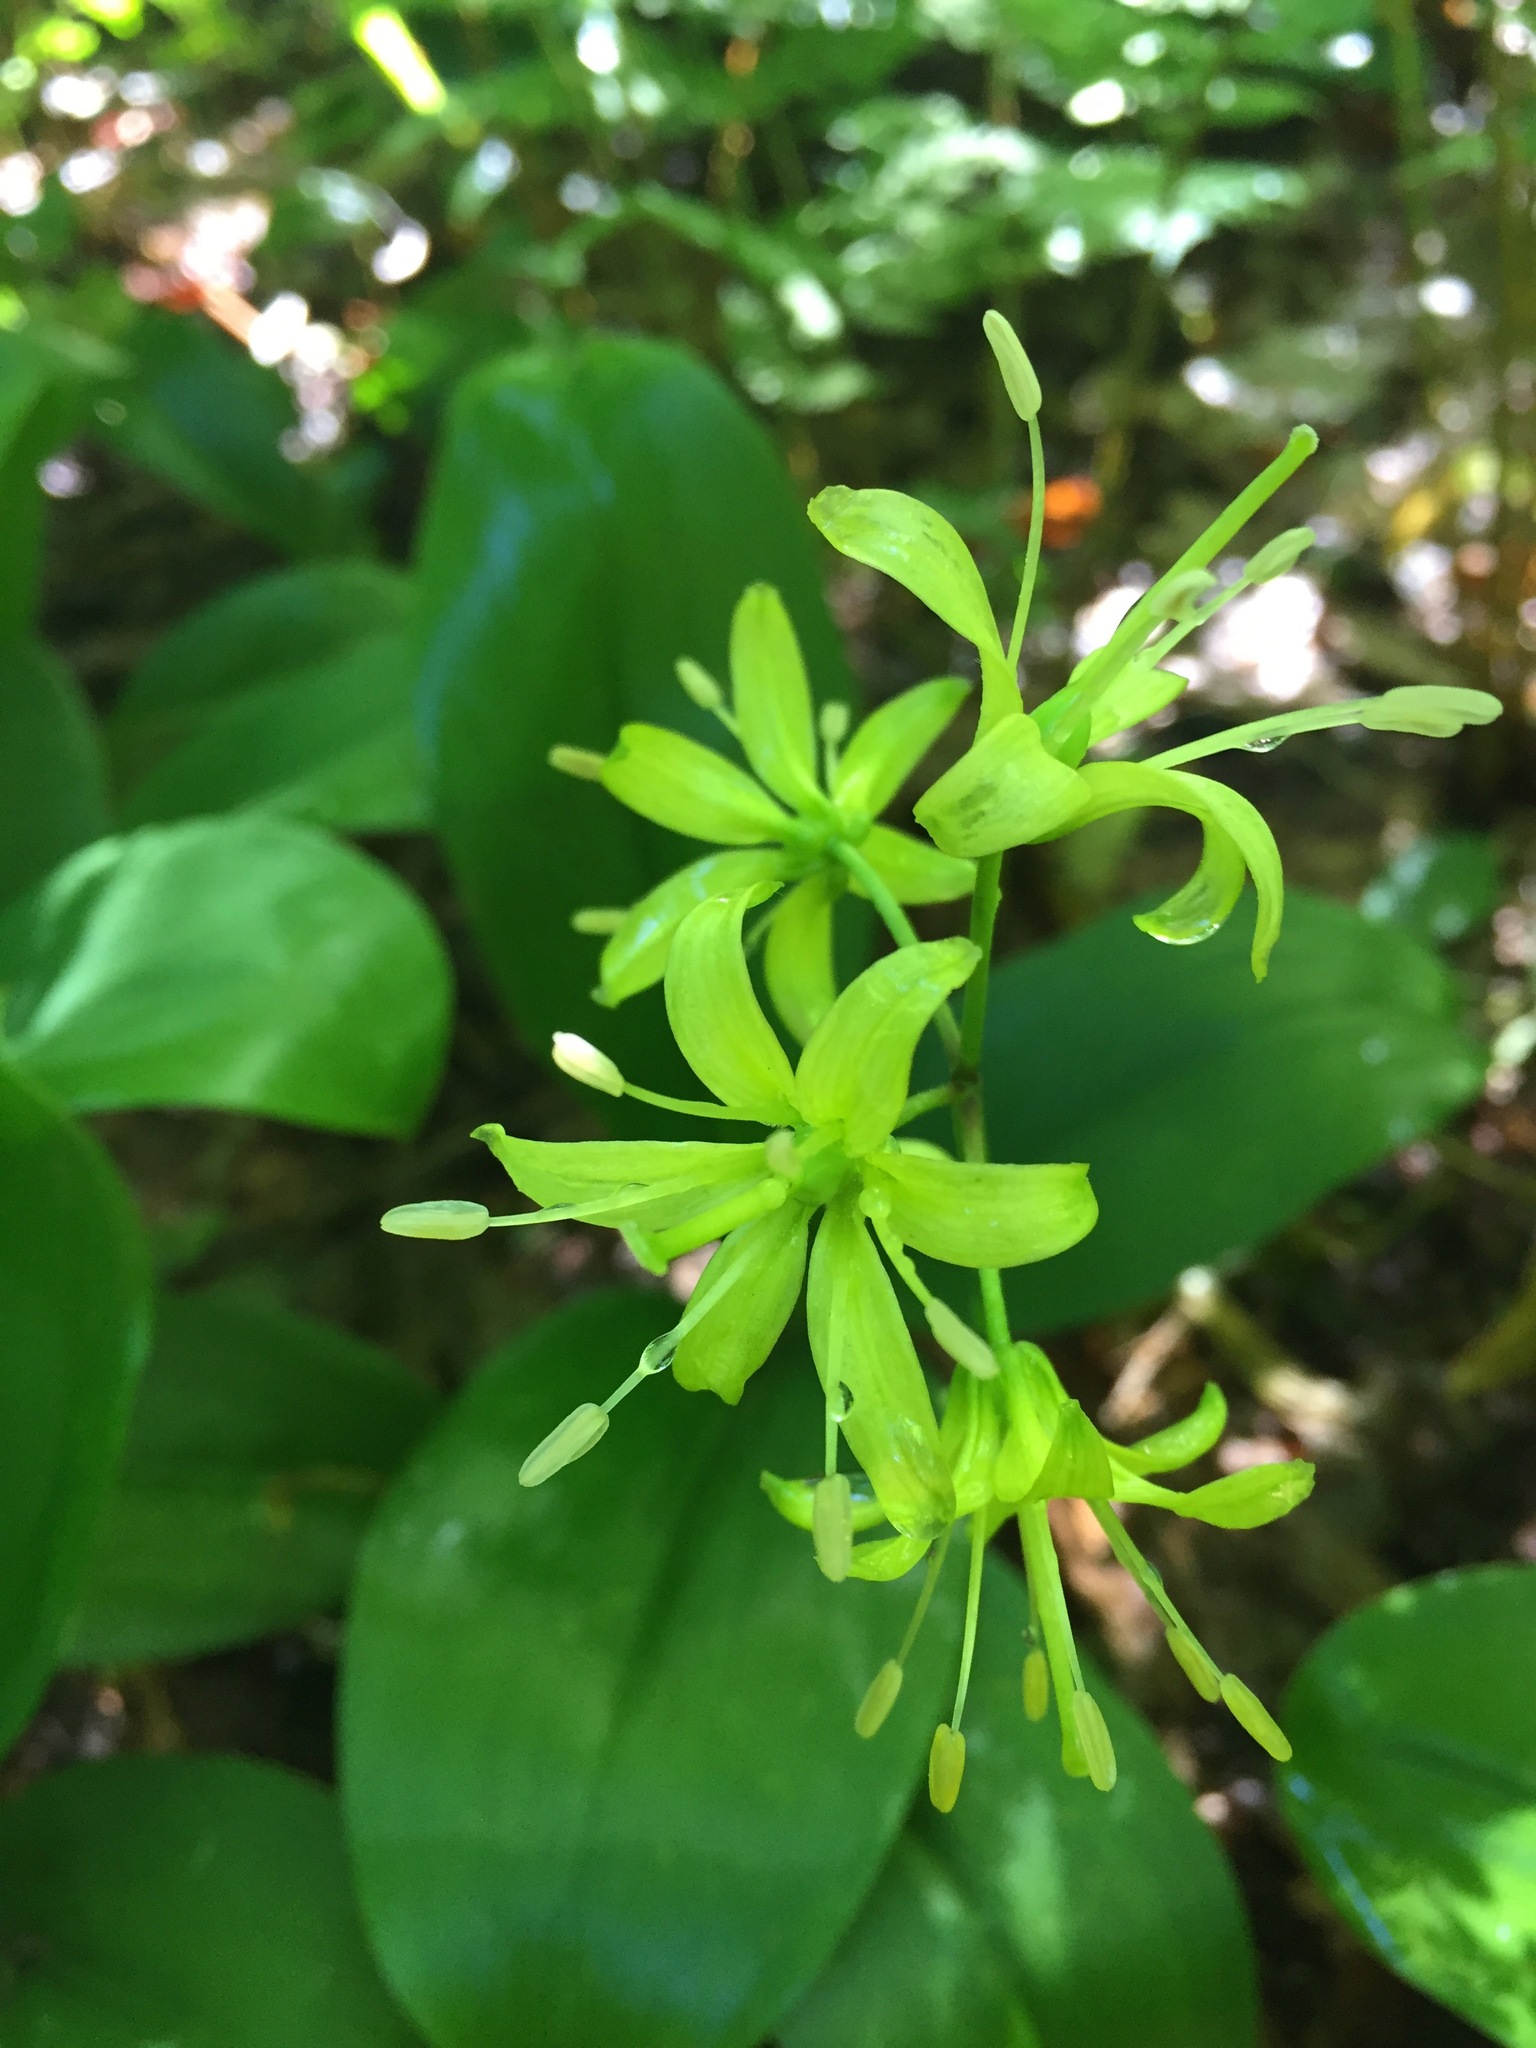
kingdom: Plantae
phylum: Tracheophyta
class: Liliopsida
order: Liliales
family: Liliaceae
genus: Clintonia
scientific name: Clintonia borealis
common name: Yellow clintonia
